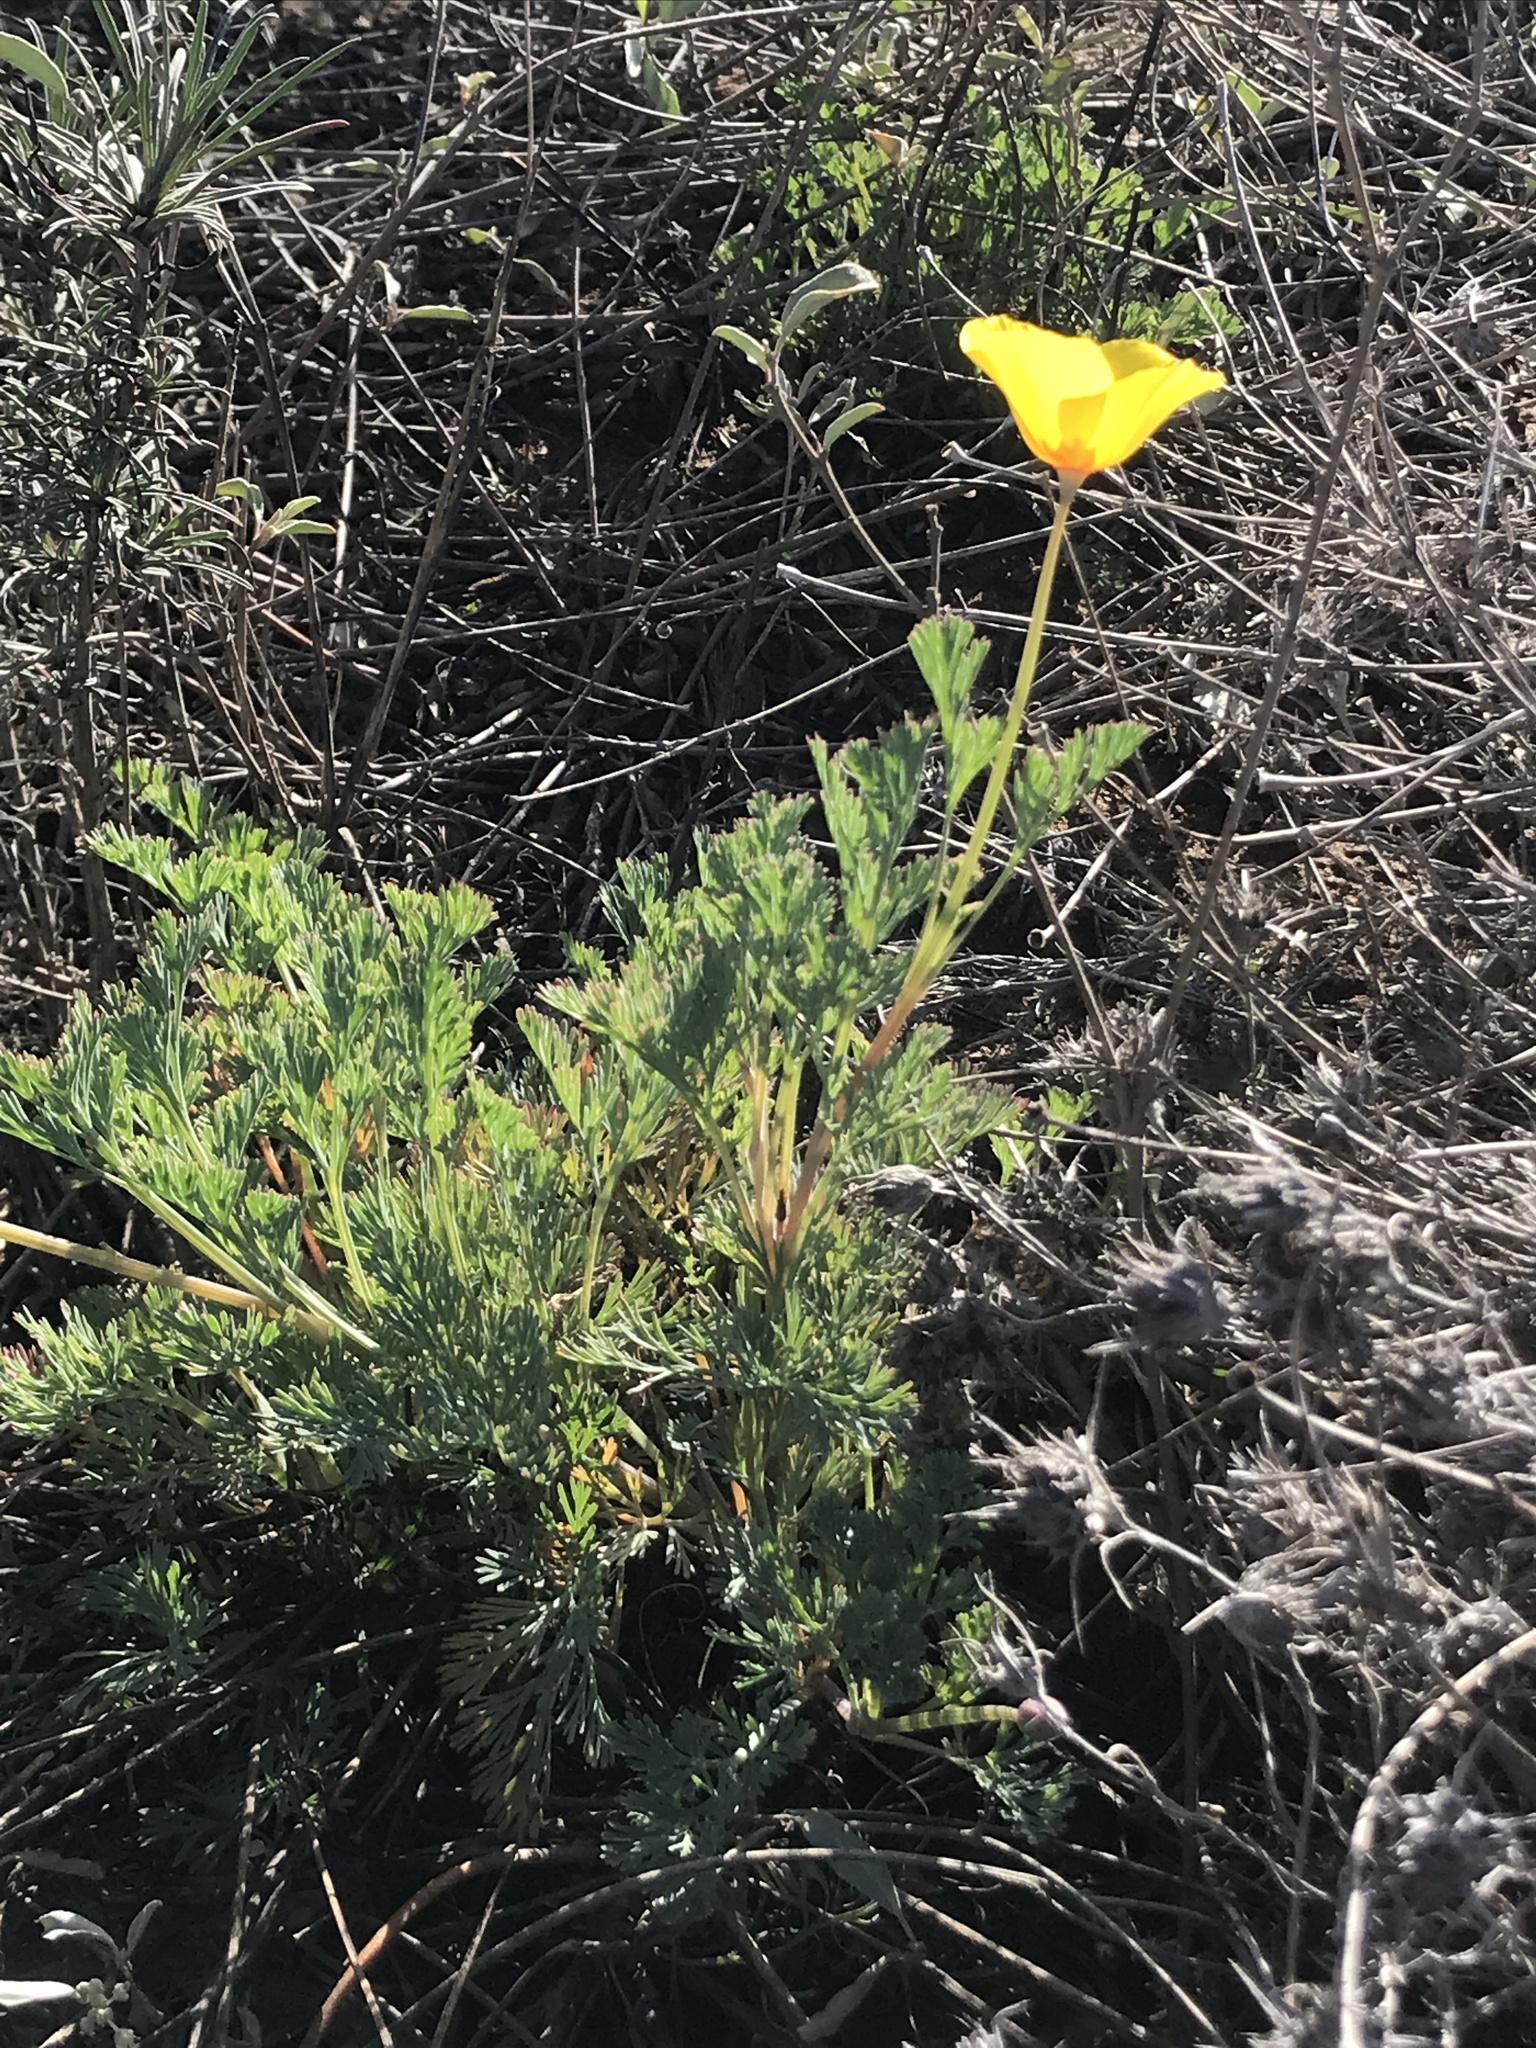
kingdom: Plantae
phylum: Tracheophyta
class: Magnoliopsida
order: Ranunculales
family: Papaveraceae
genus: Eschscholzia
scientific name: Eschscholzia californica
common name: California poppy
